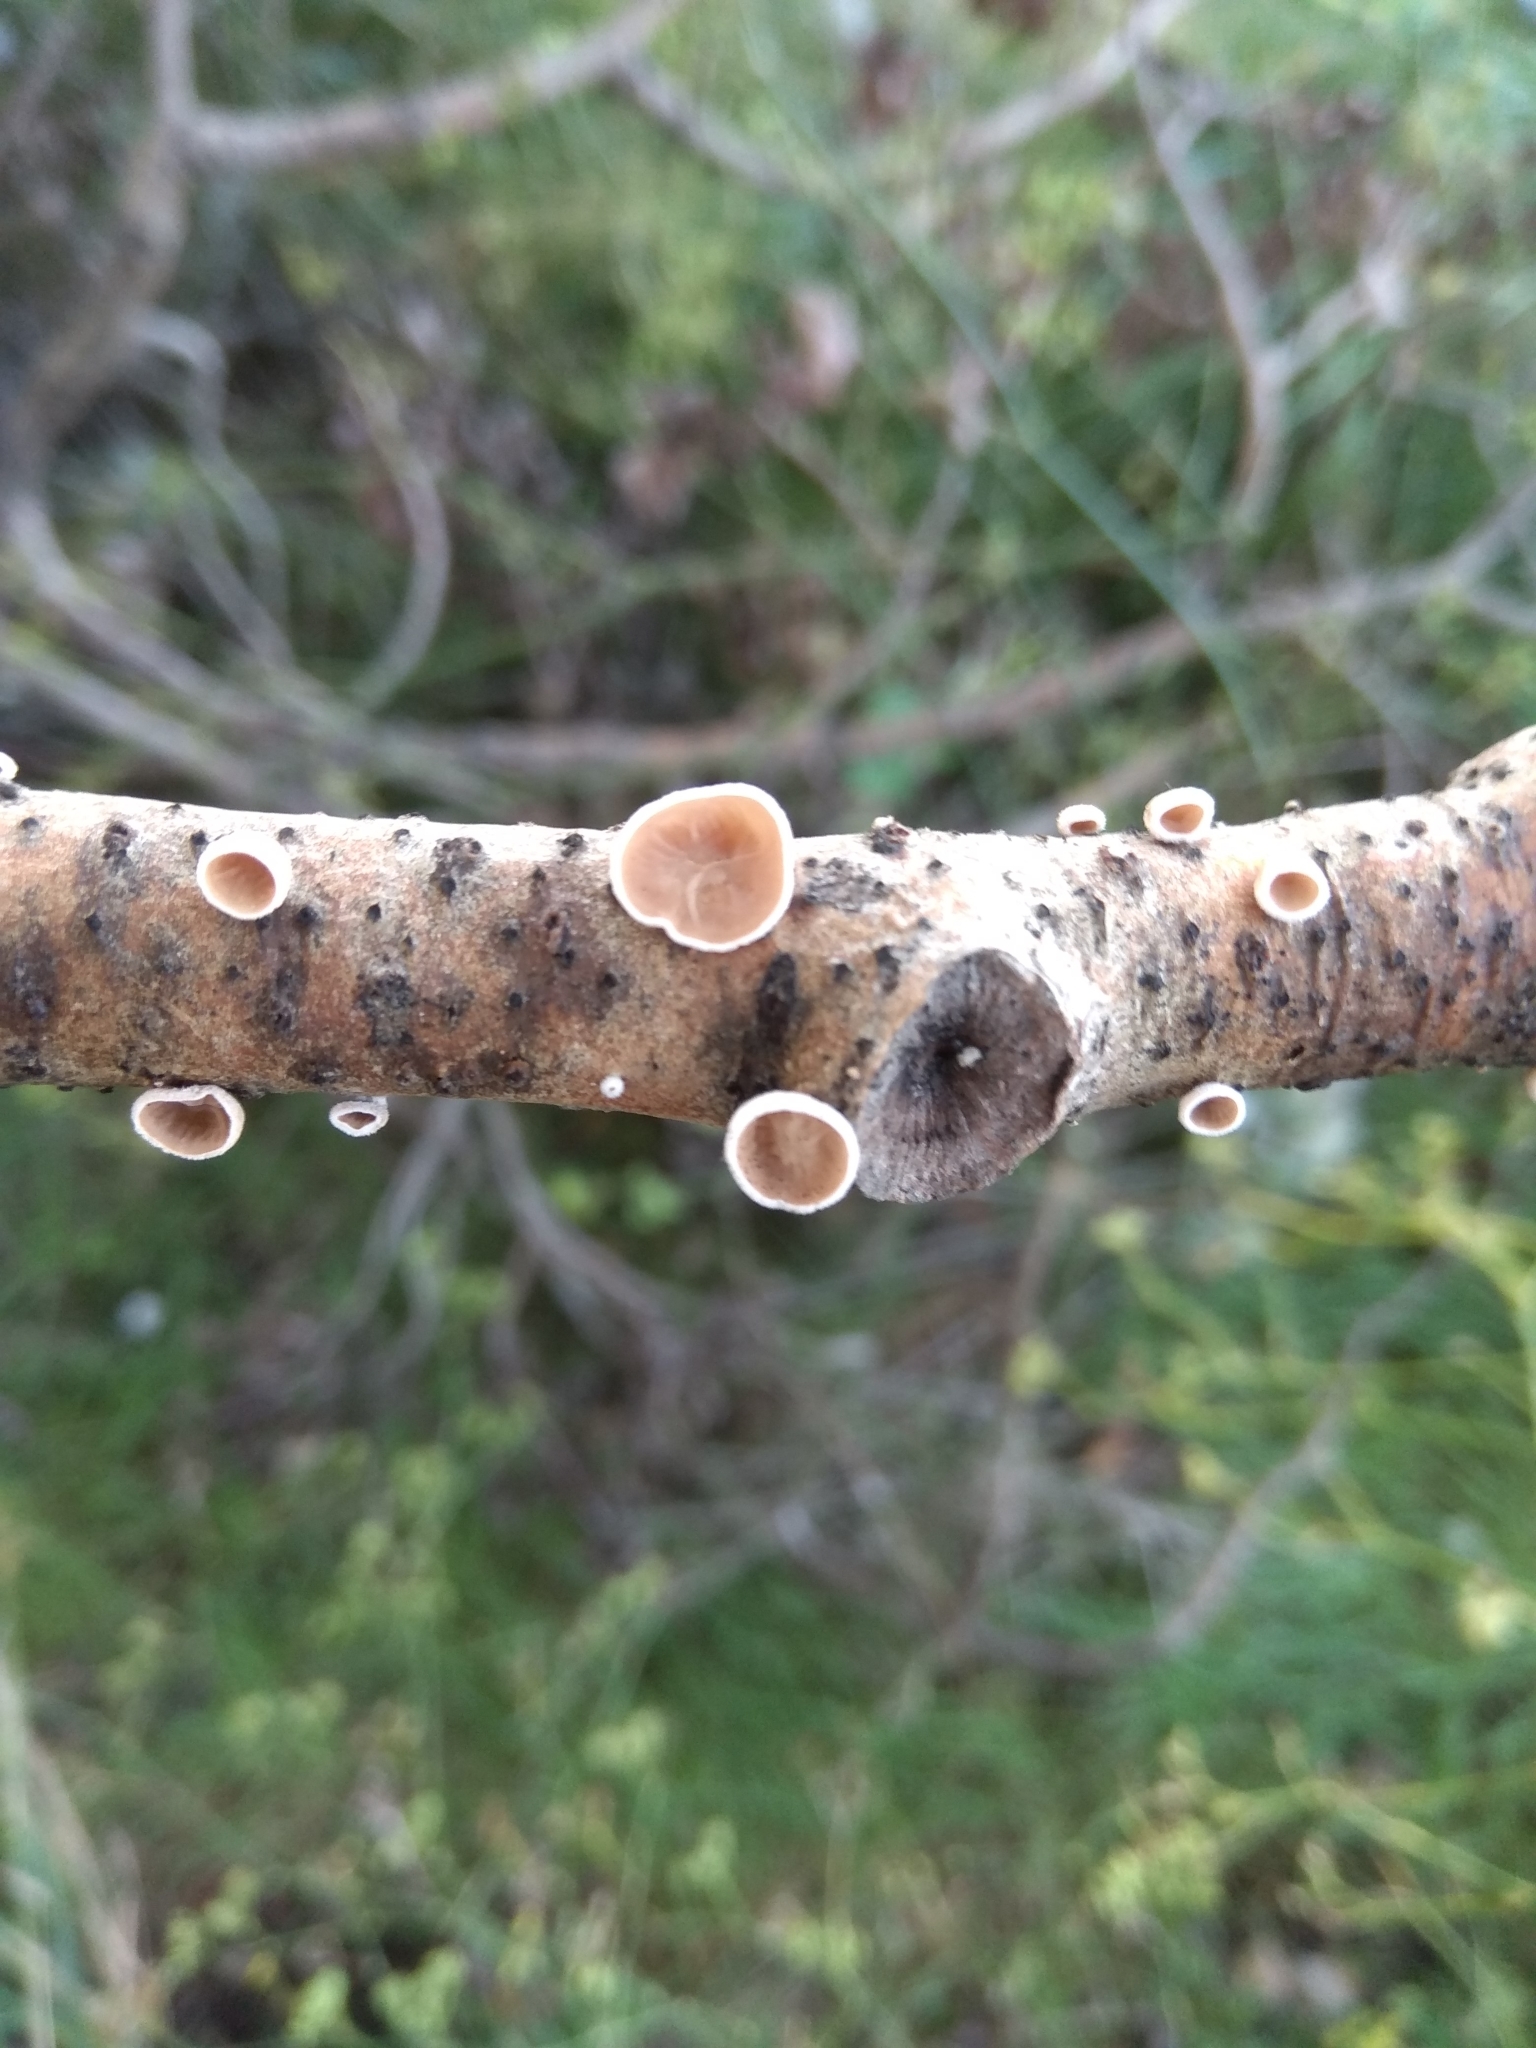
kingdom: Fungi
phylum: Basidiomycota
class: Agaricomycetes
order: Agaricales
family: Schizophyllaceae
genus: Schizophyllum
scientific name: Schizophyllum amplum
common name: Poplar bells
